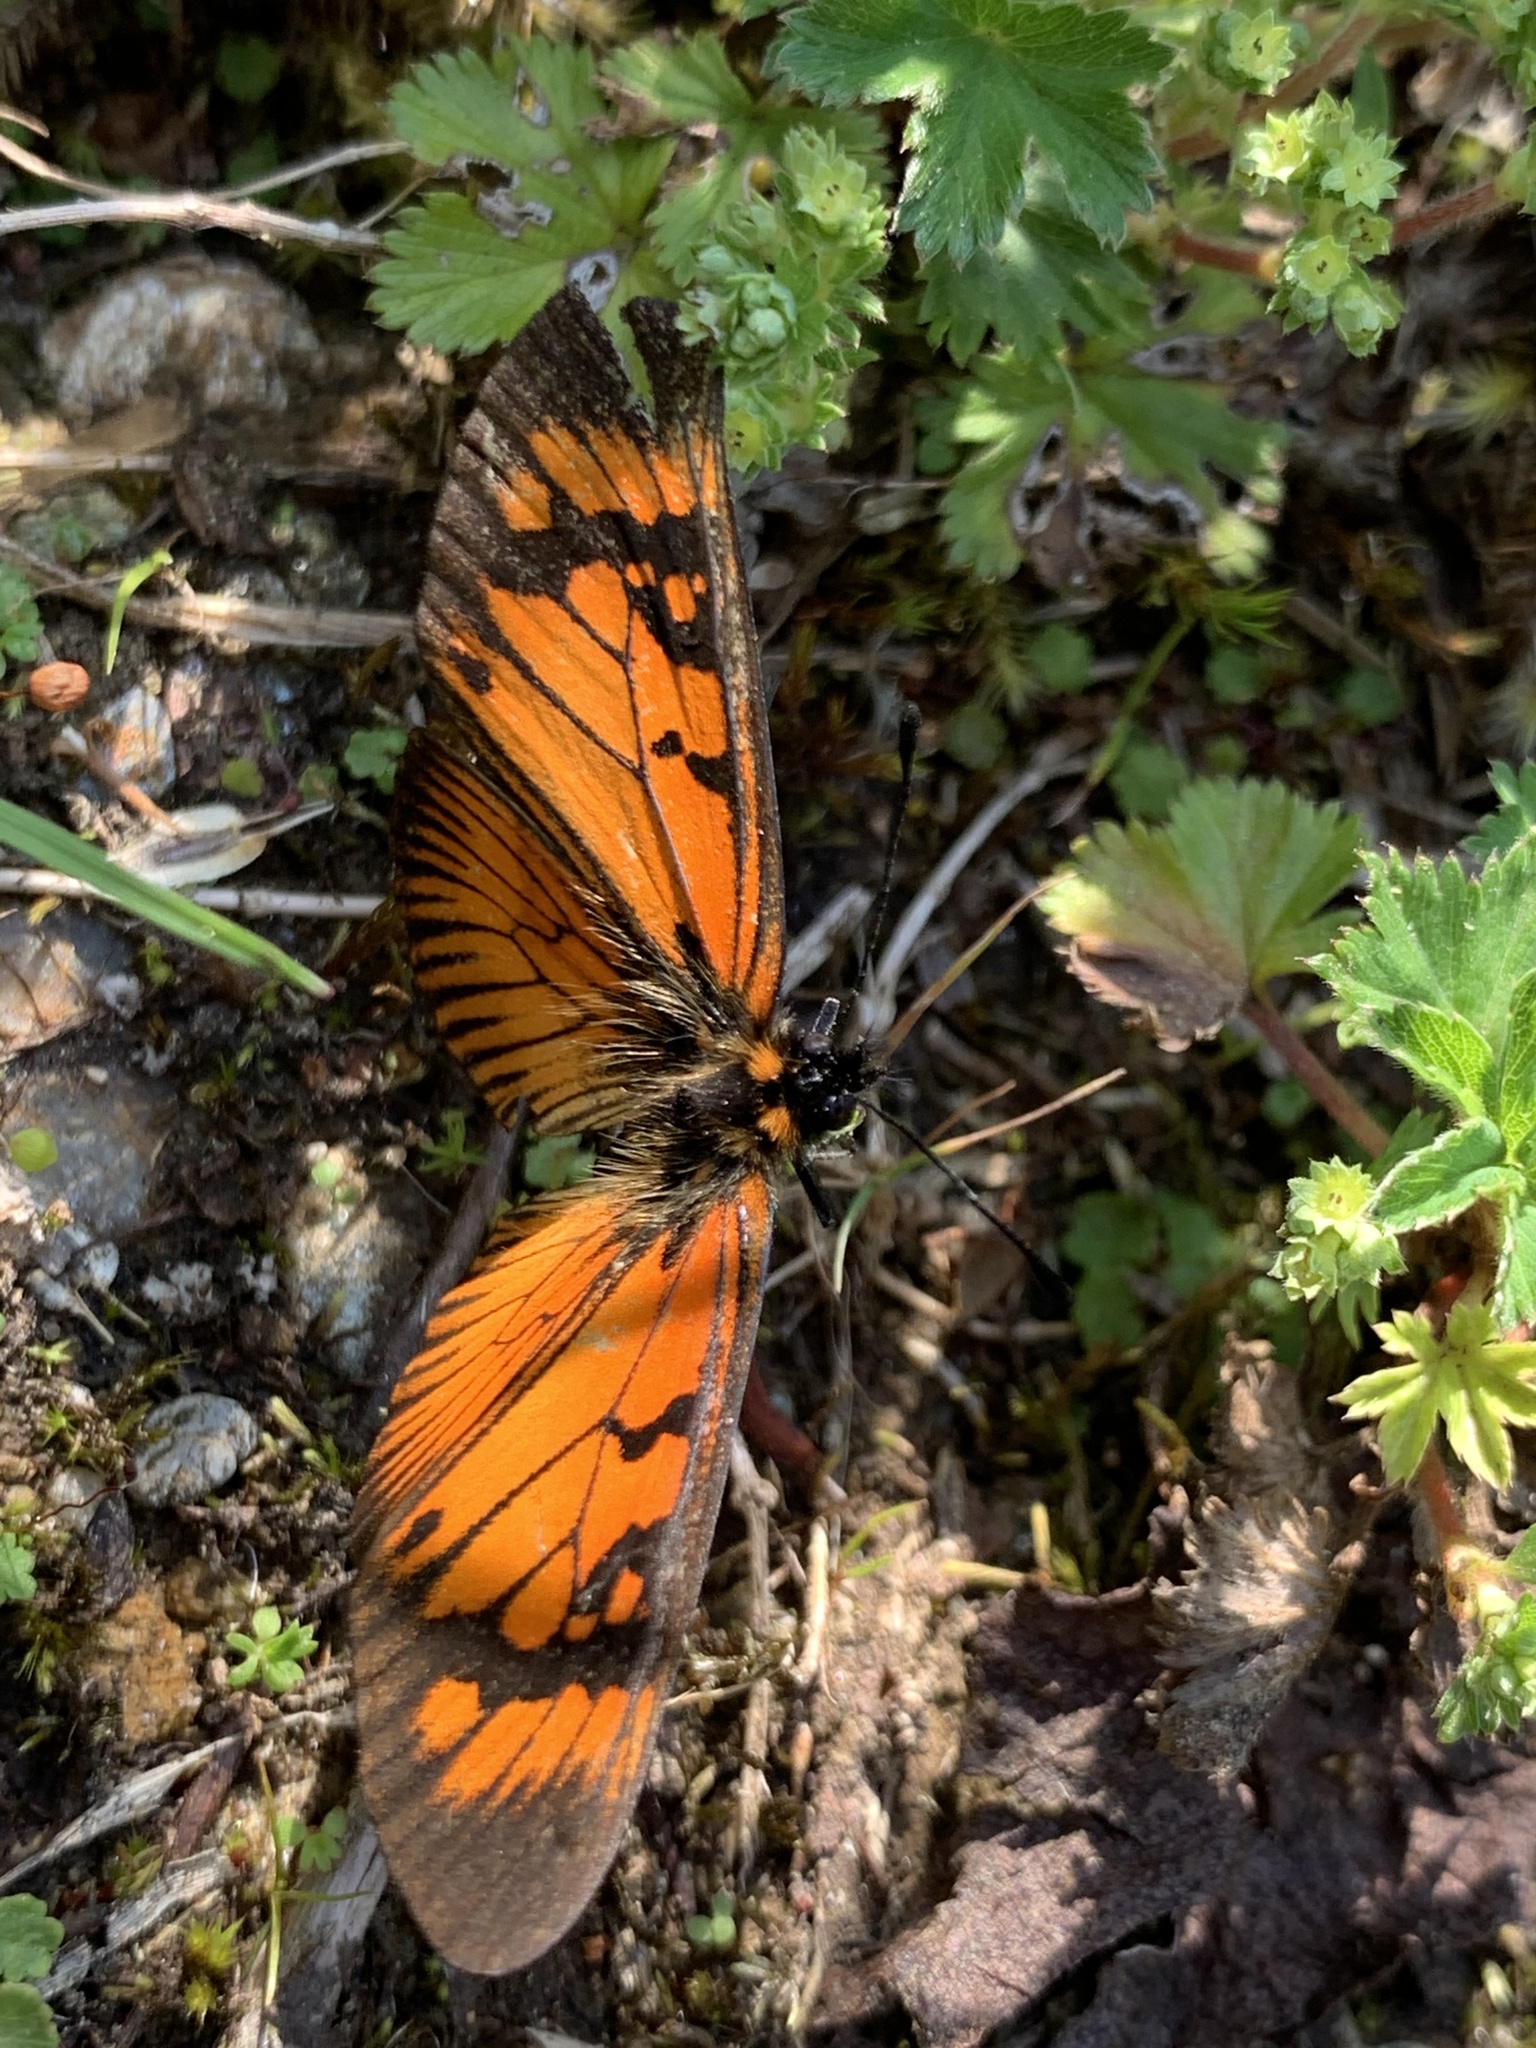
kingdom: Animalia
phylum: Arthropoda
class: Insecta
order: Lepidoptera
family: Nymphalidae
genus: Acraea
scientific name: Acraea erebia
